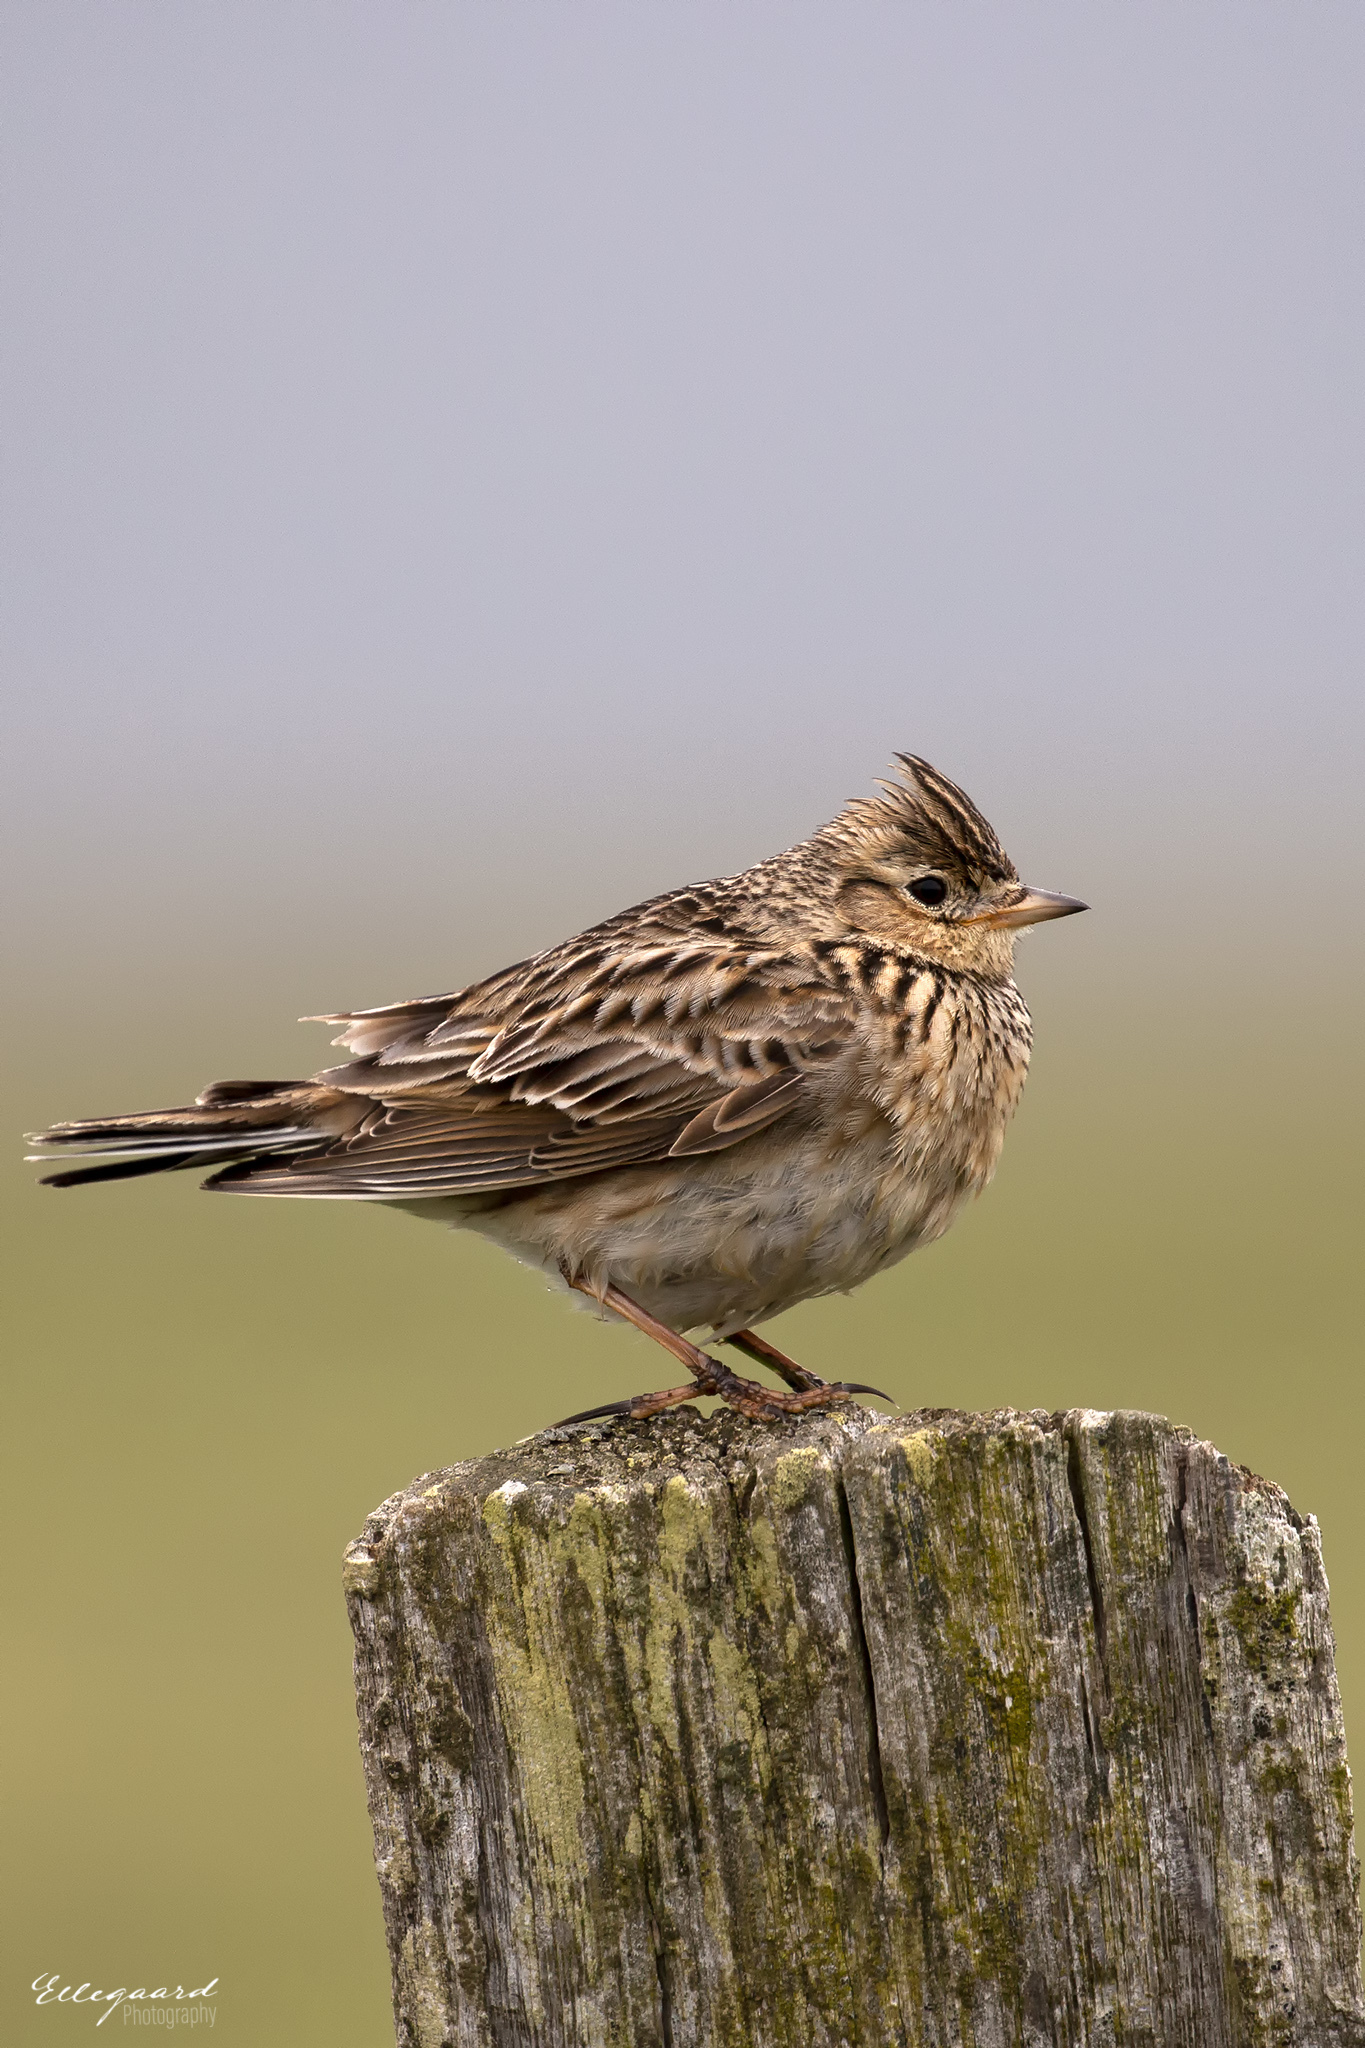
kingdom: Animalia
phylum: Chordata
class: Aves
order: Passeriformes
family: Alaudidae
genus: Alauda
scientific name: Alauda arvensis
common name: Eurasian skylark
